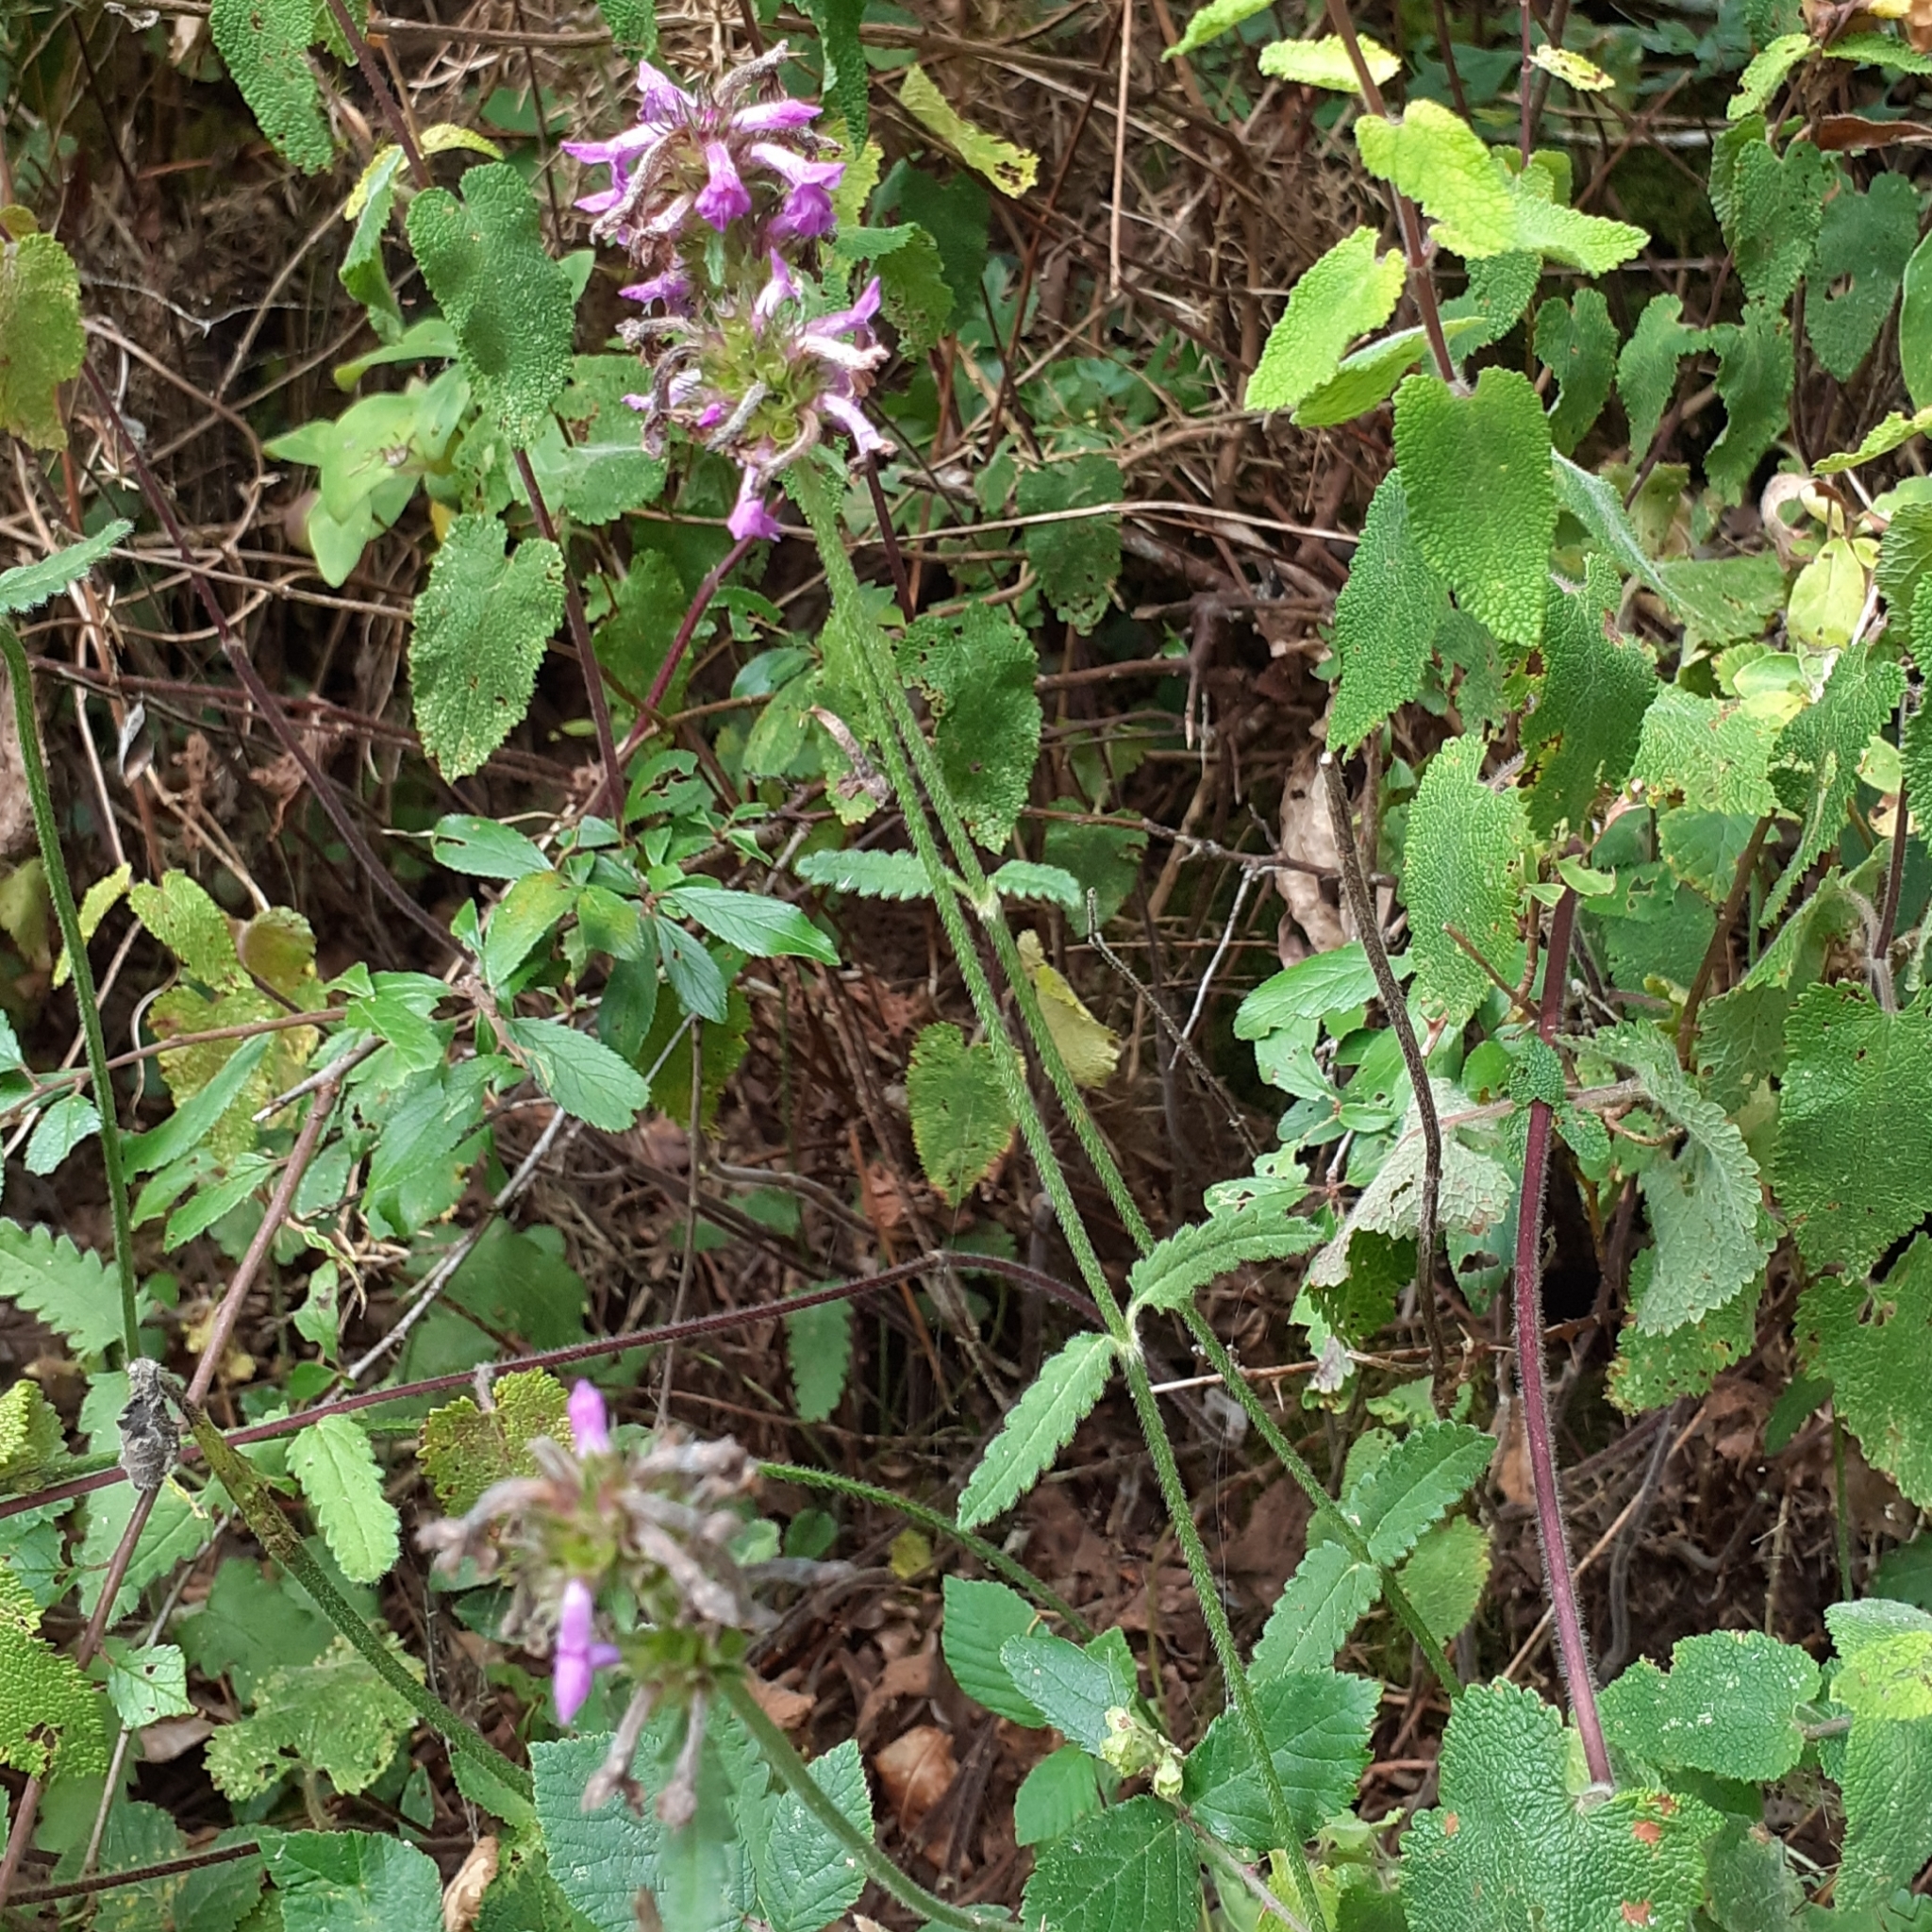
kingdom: Plantae
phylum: Tracheophyta
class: Magnoliopsida
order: Lamiales
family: Lamiaceae
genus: Betonica
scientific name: Betonica officinalis
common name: Bishop's-wort
